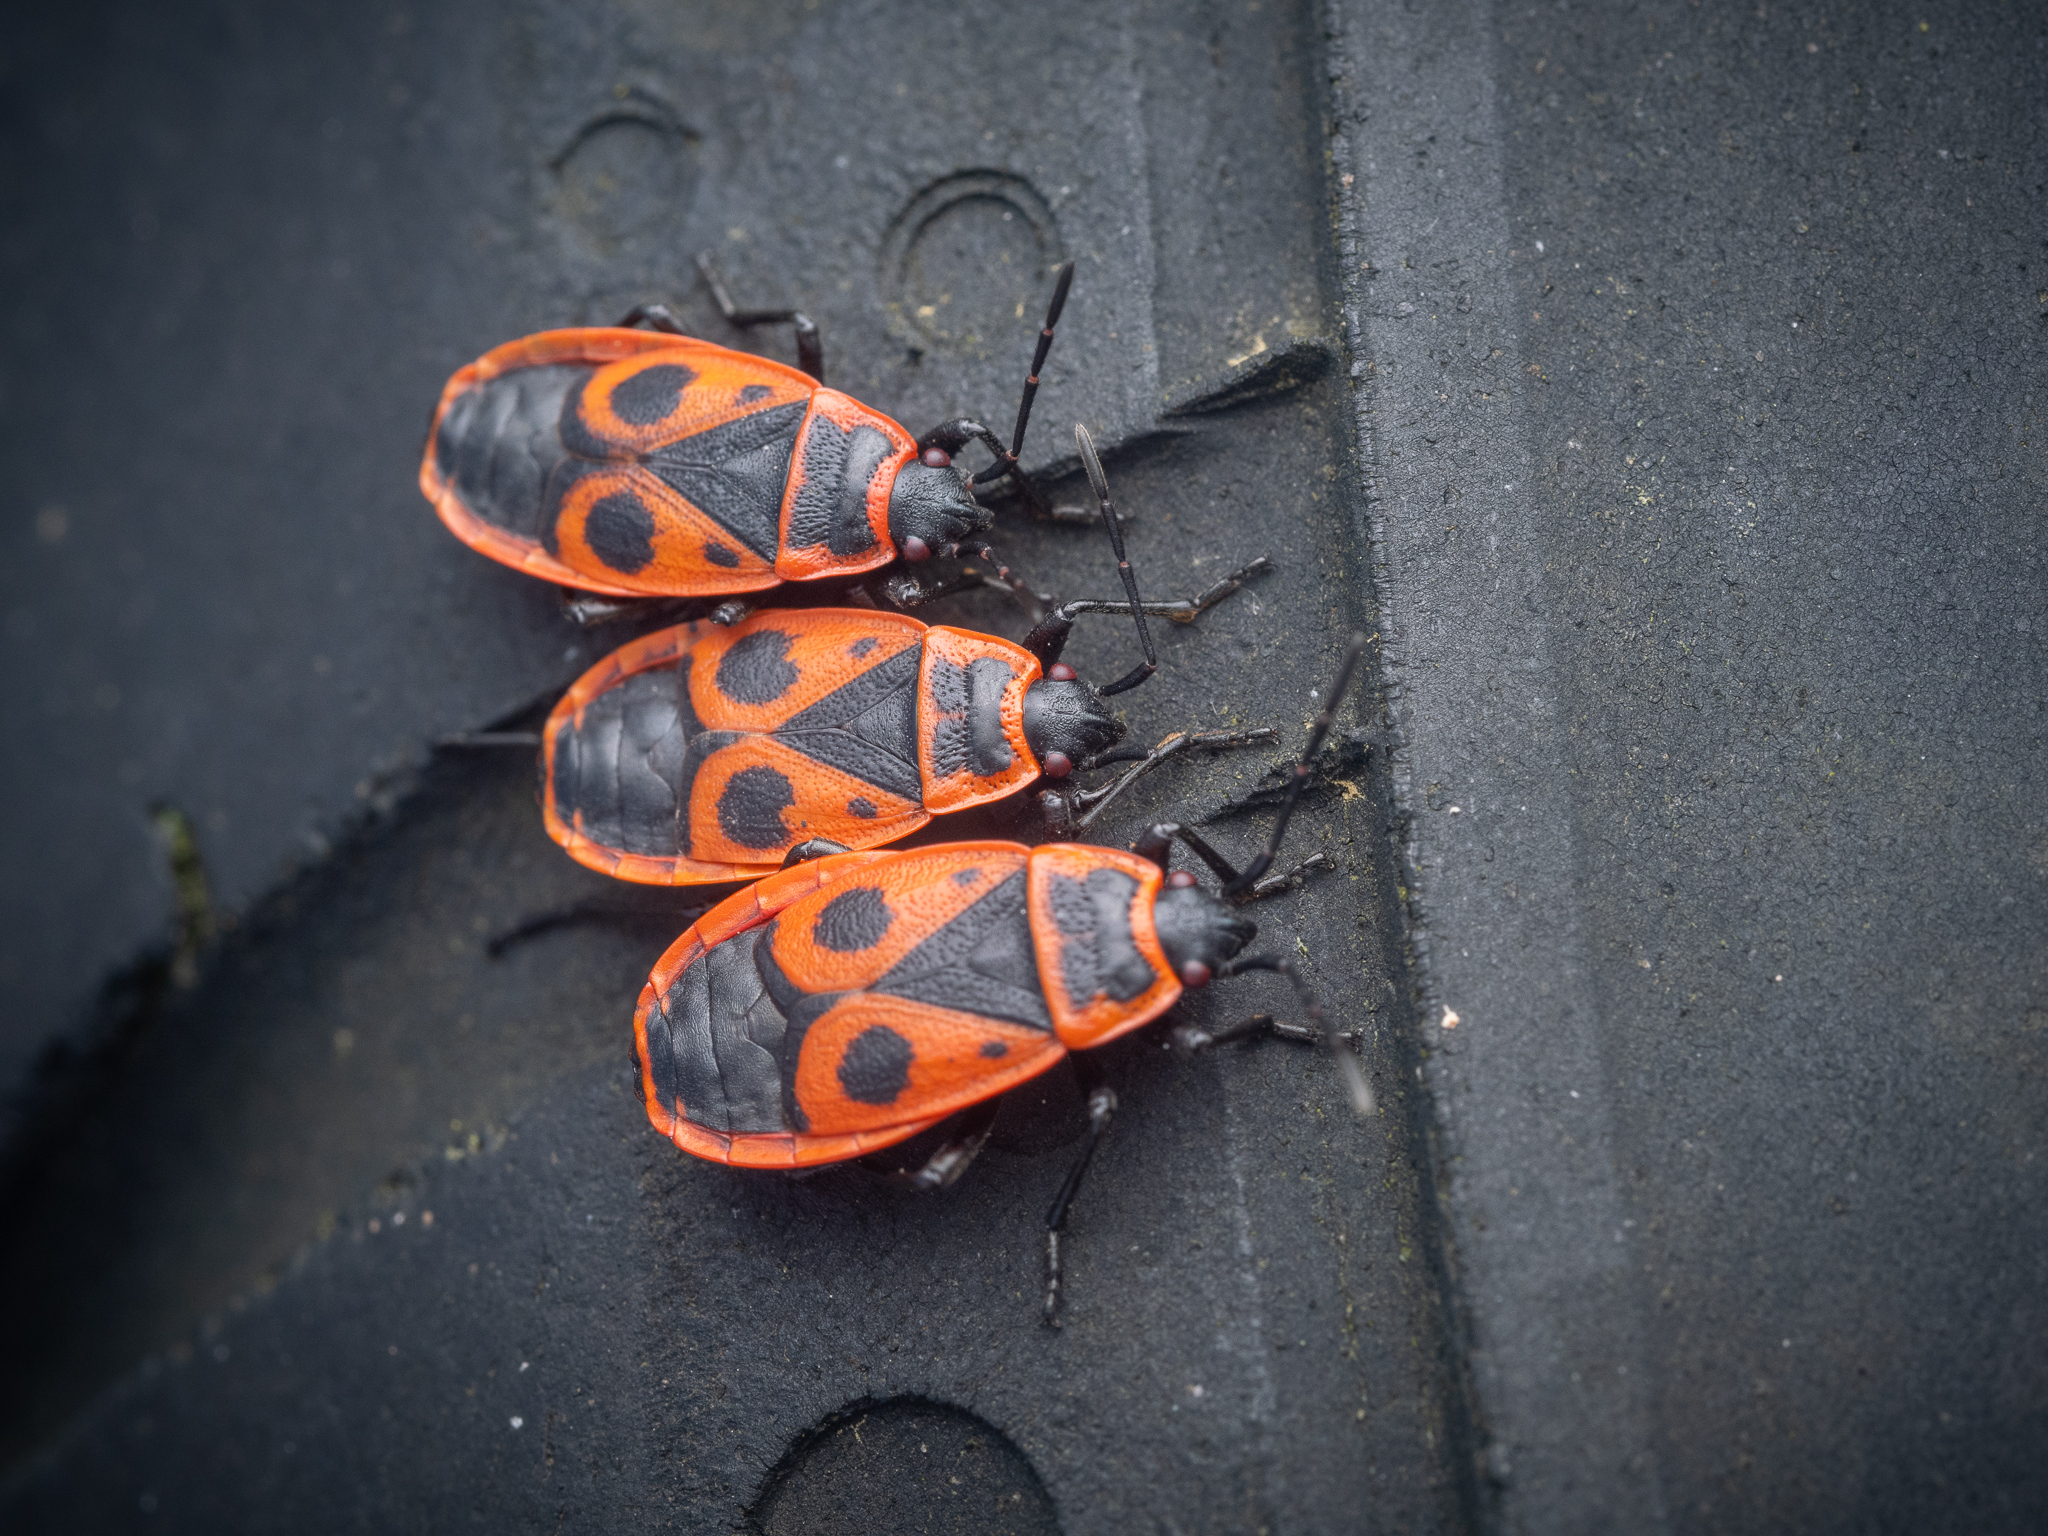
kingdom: Animalia
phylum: Arthropoda
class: Insecta
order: Hemiptera
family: Pyrrhocoridae
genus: Pyrrhocoris
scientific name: Pyrrhocoris apterus
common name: Firebug
